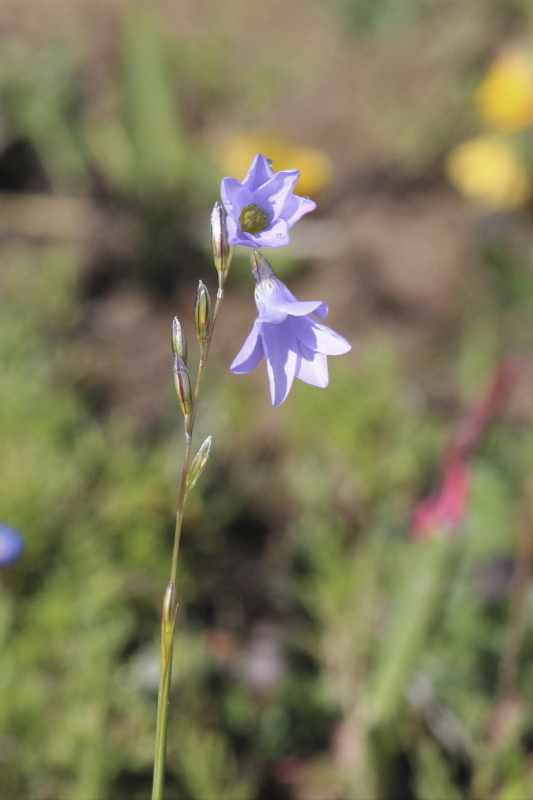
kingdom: Plantae
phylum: Tracheophyta
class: Liliopsida
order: Asparagales
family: Iridaceae
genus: Ixia
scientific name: Ixia rapunculoides
